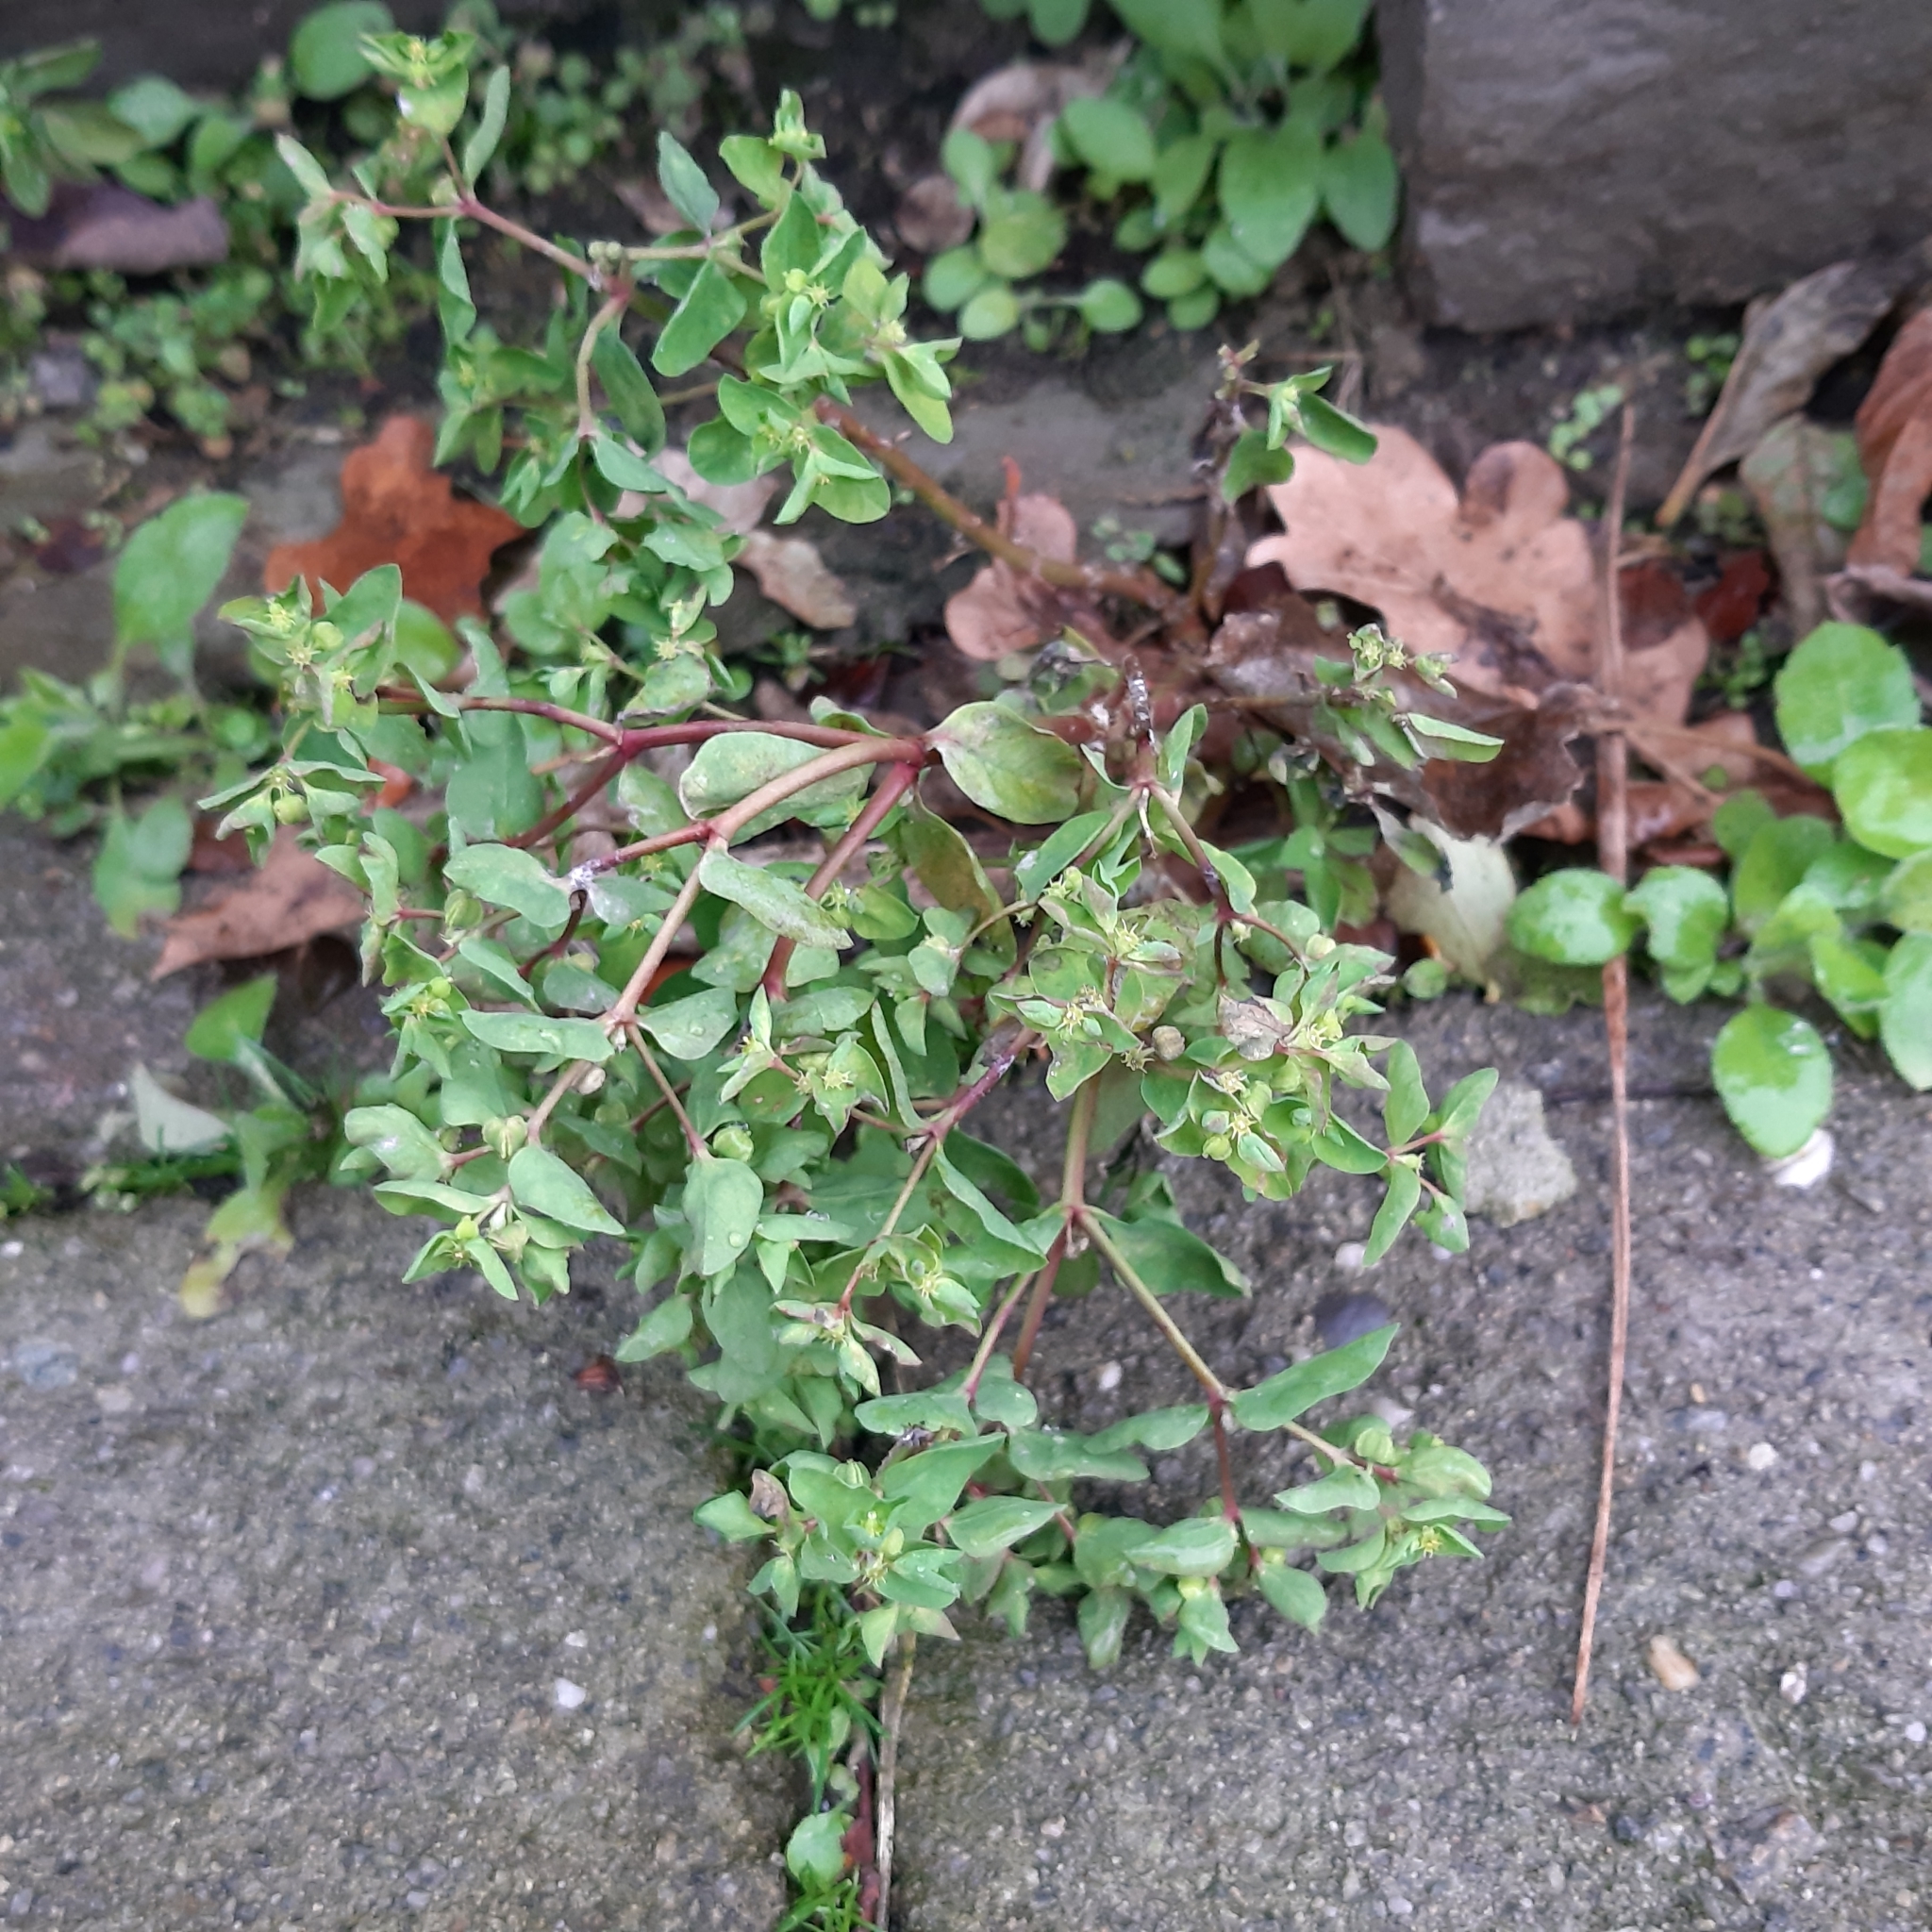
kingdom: Plantae
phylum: Tracheophyta
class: Magnoliopsida
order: Malpighiales
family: Euphorbiaceae
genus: Euphorbia
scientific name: Euphorbia peplus
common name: Petty spurge
